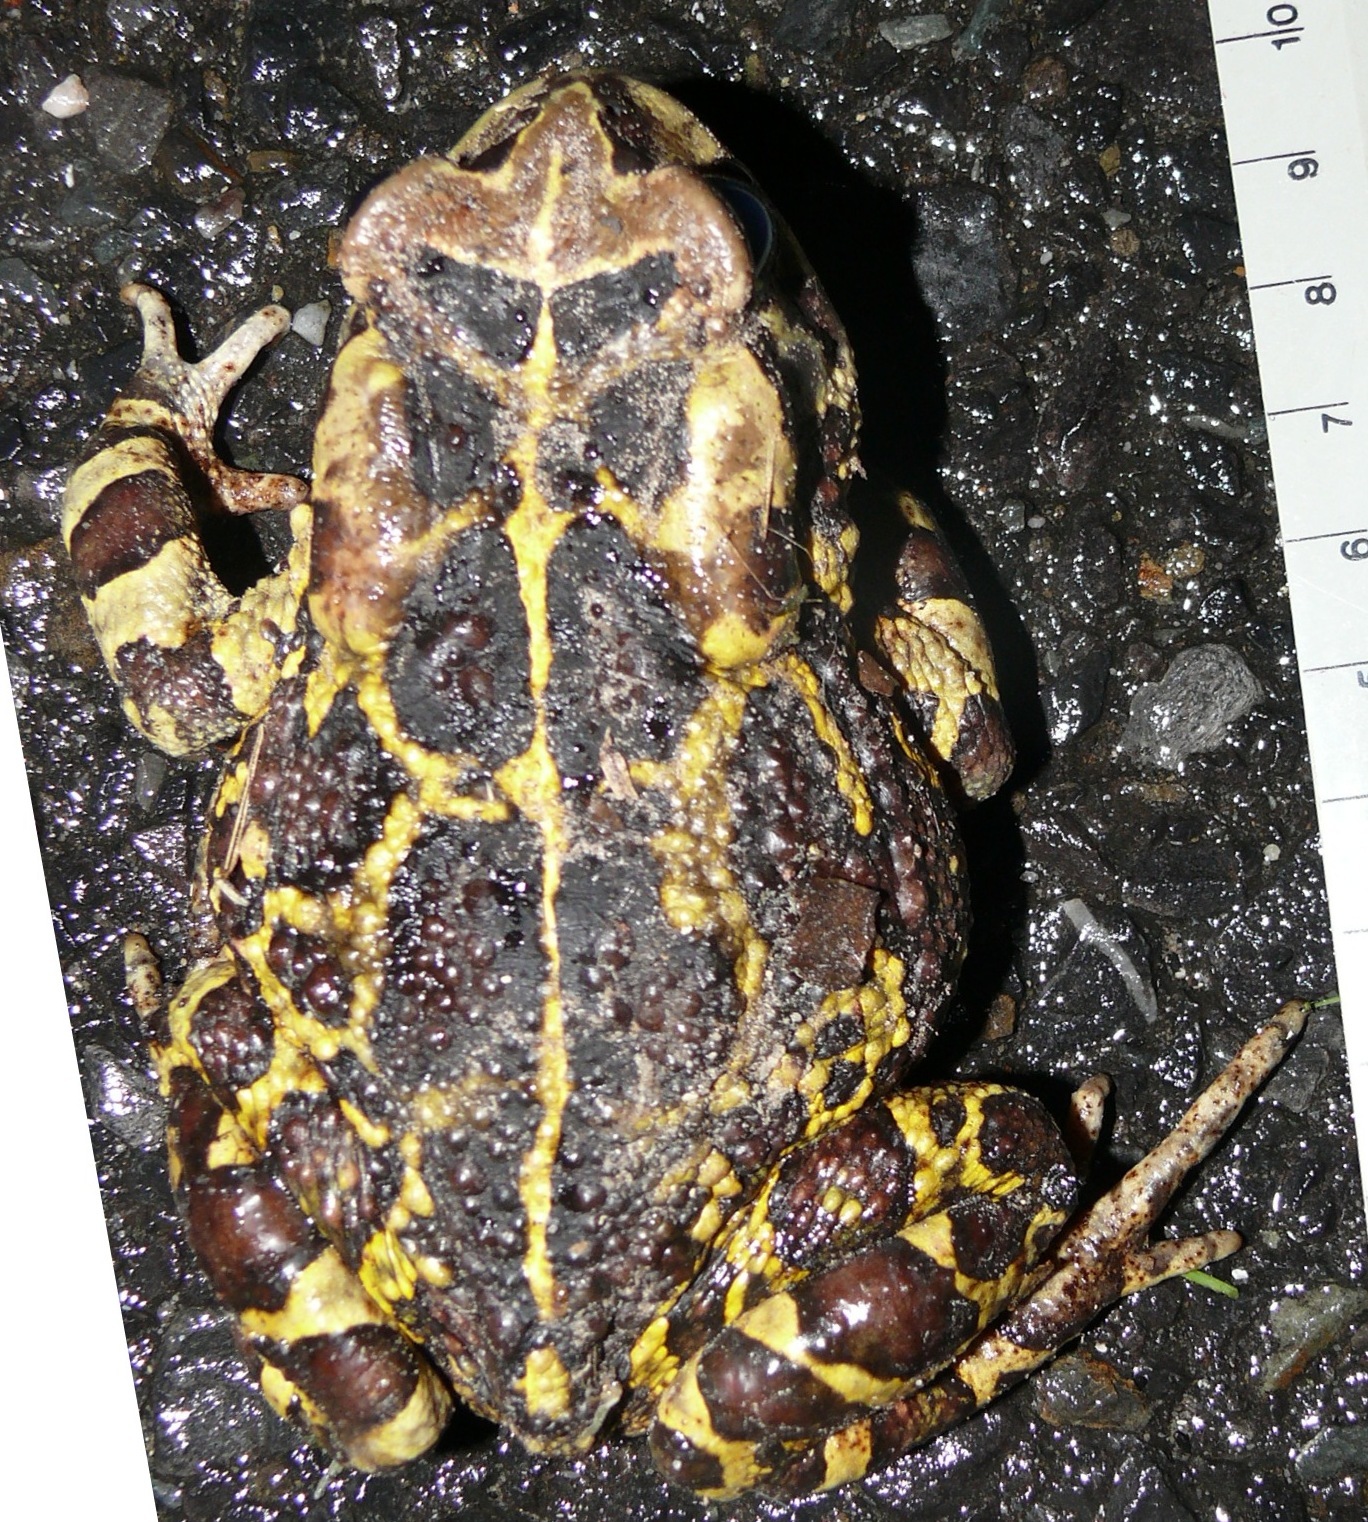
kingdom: Animalia
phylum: Chordata
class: Amphibia
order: Anura
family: Bufonidae
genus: Sclerophrys
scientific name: Sclerophrys pantherina
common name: Panther toad
